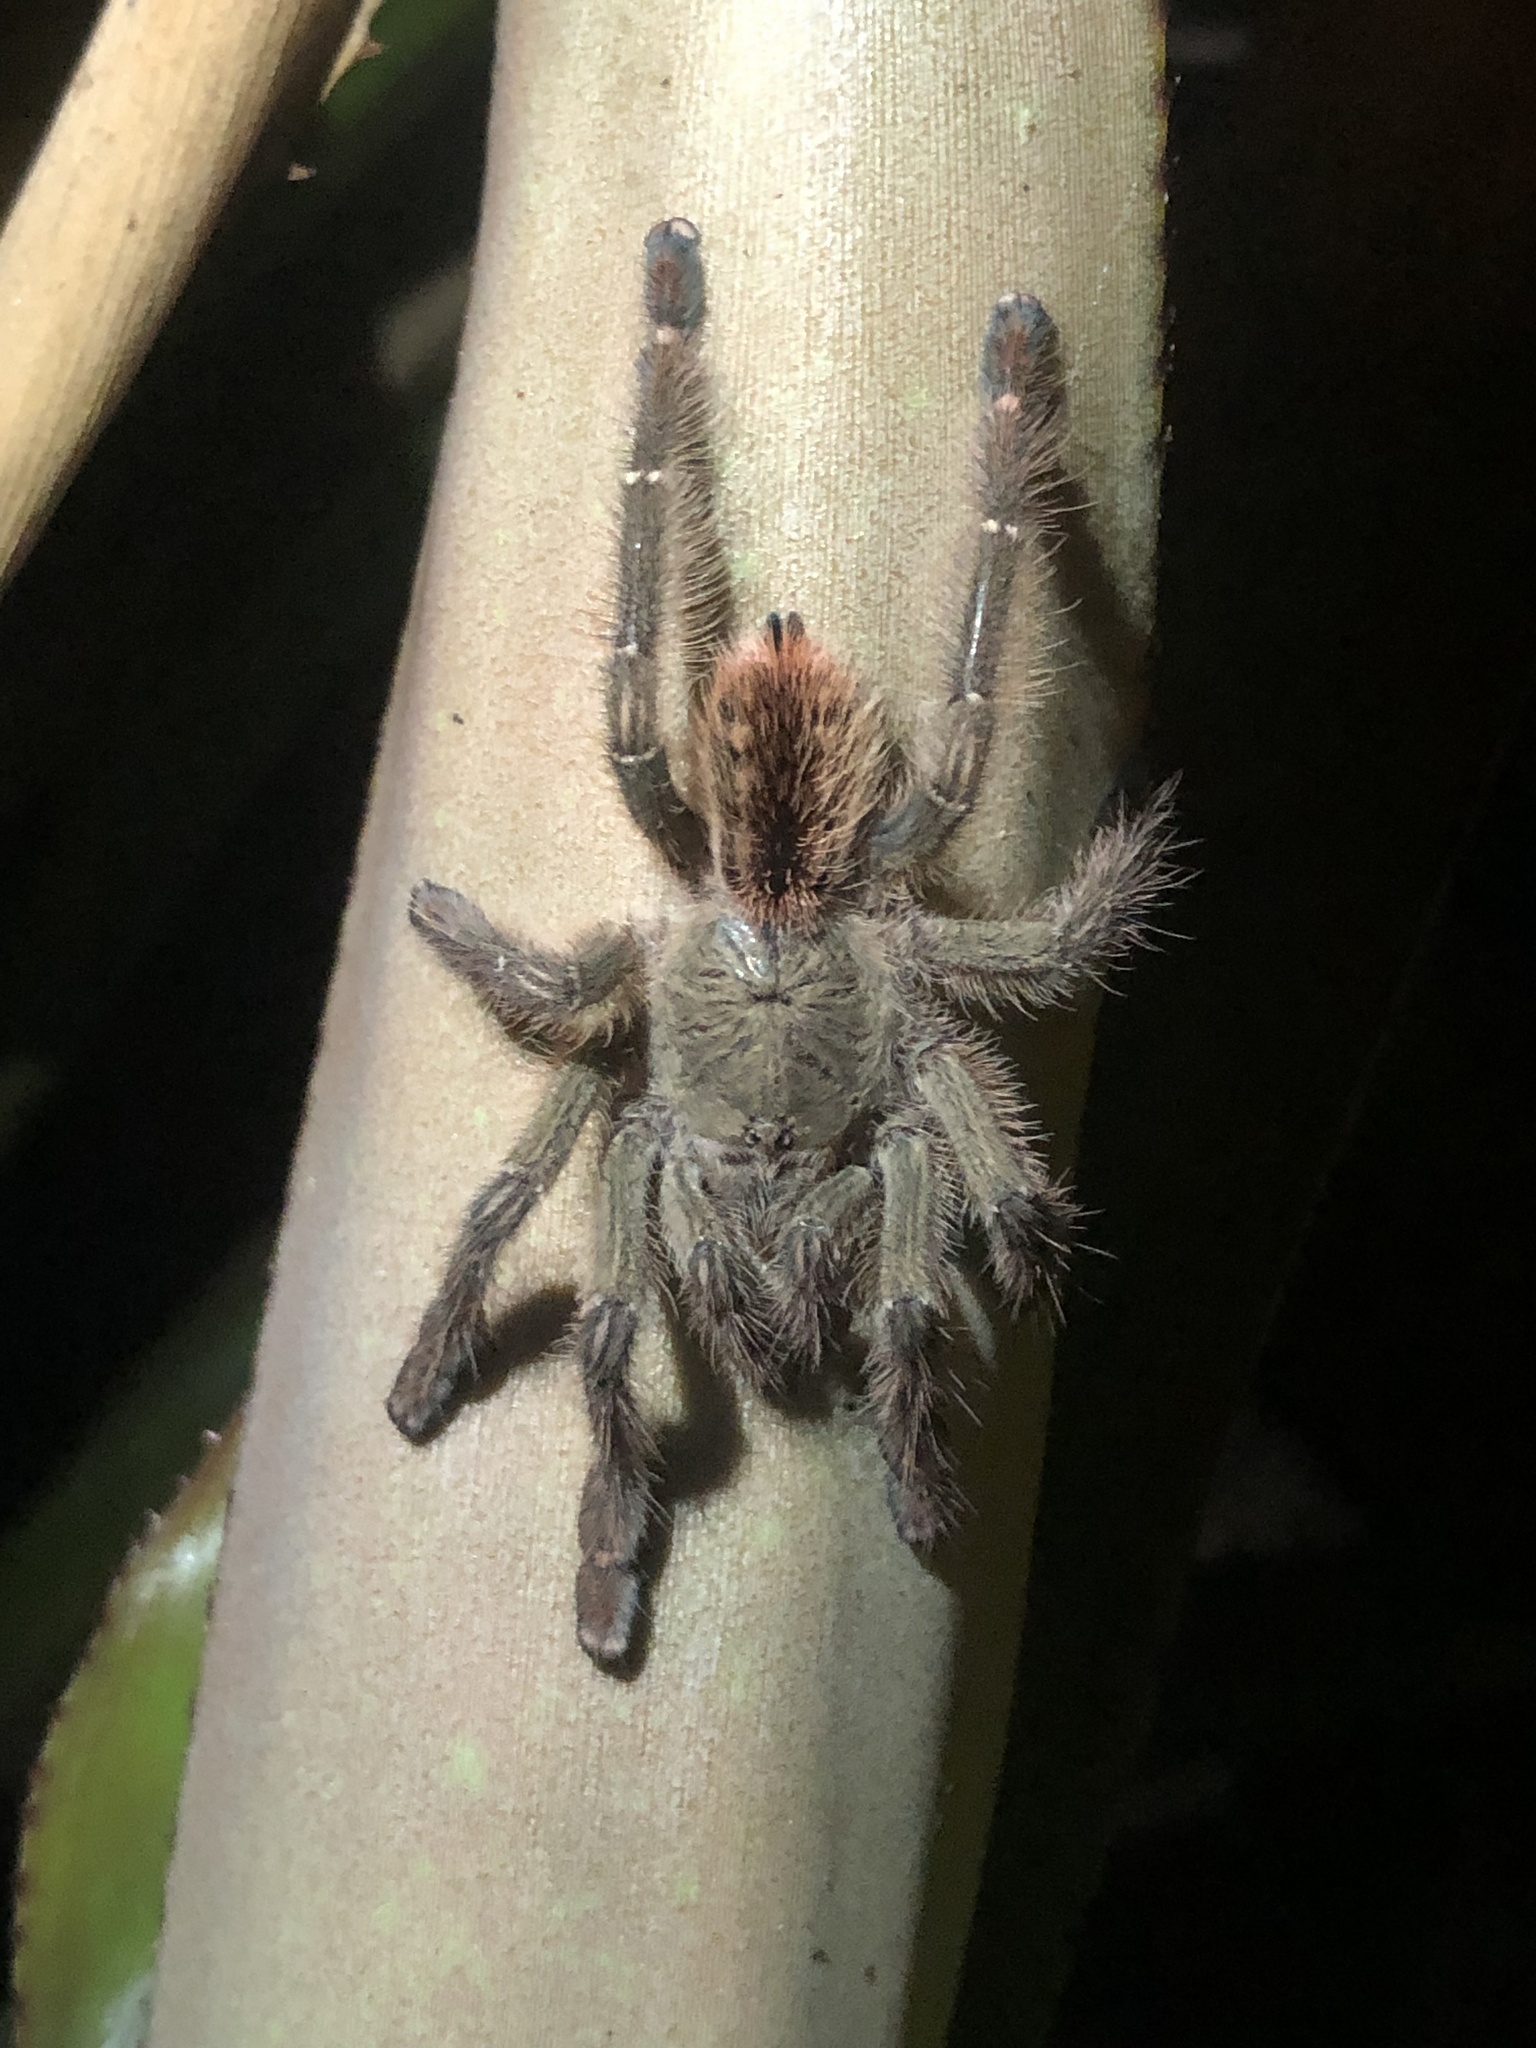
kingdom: Animalia
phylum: Arthropoda
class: Arachnida
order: Araneae
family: Theraphosidae
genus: Iridopelma
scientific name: Iridopelma hirsutum
